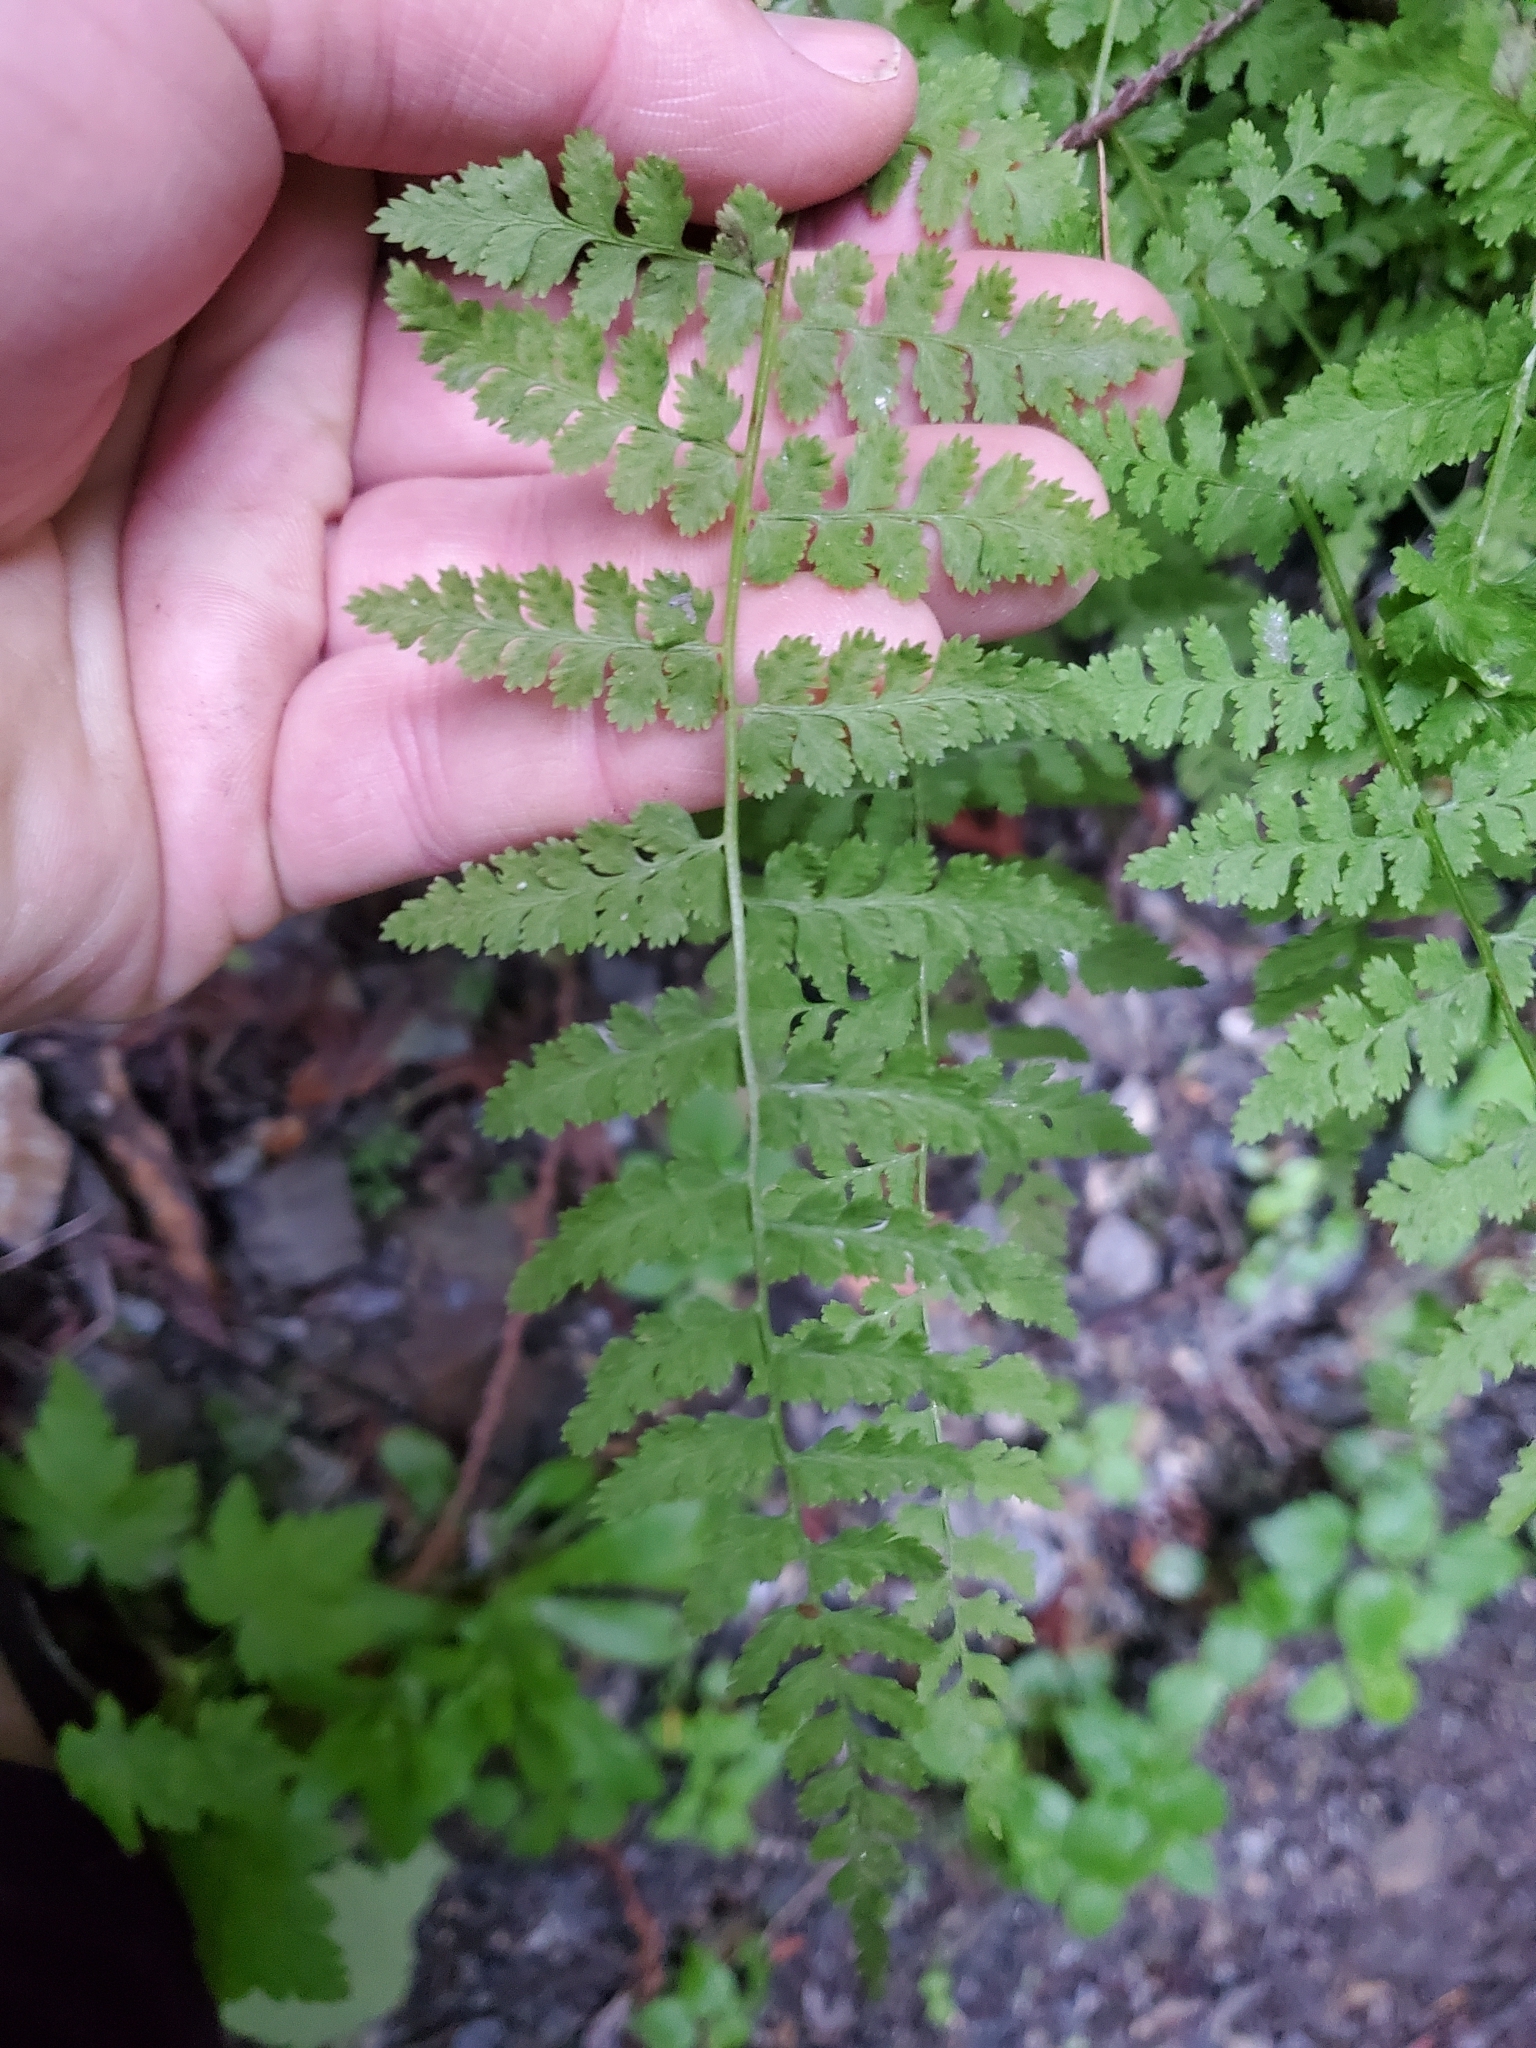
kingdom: Plantae
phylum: Tracheophyta
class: Polypodiopsida
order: Polypodiales
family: Cystopteridaceae
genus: Cystopteris
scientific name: Cystopteris fragilis
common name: Brittle bladder fern
